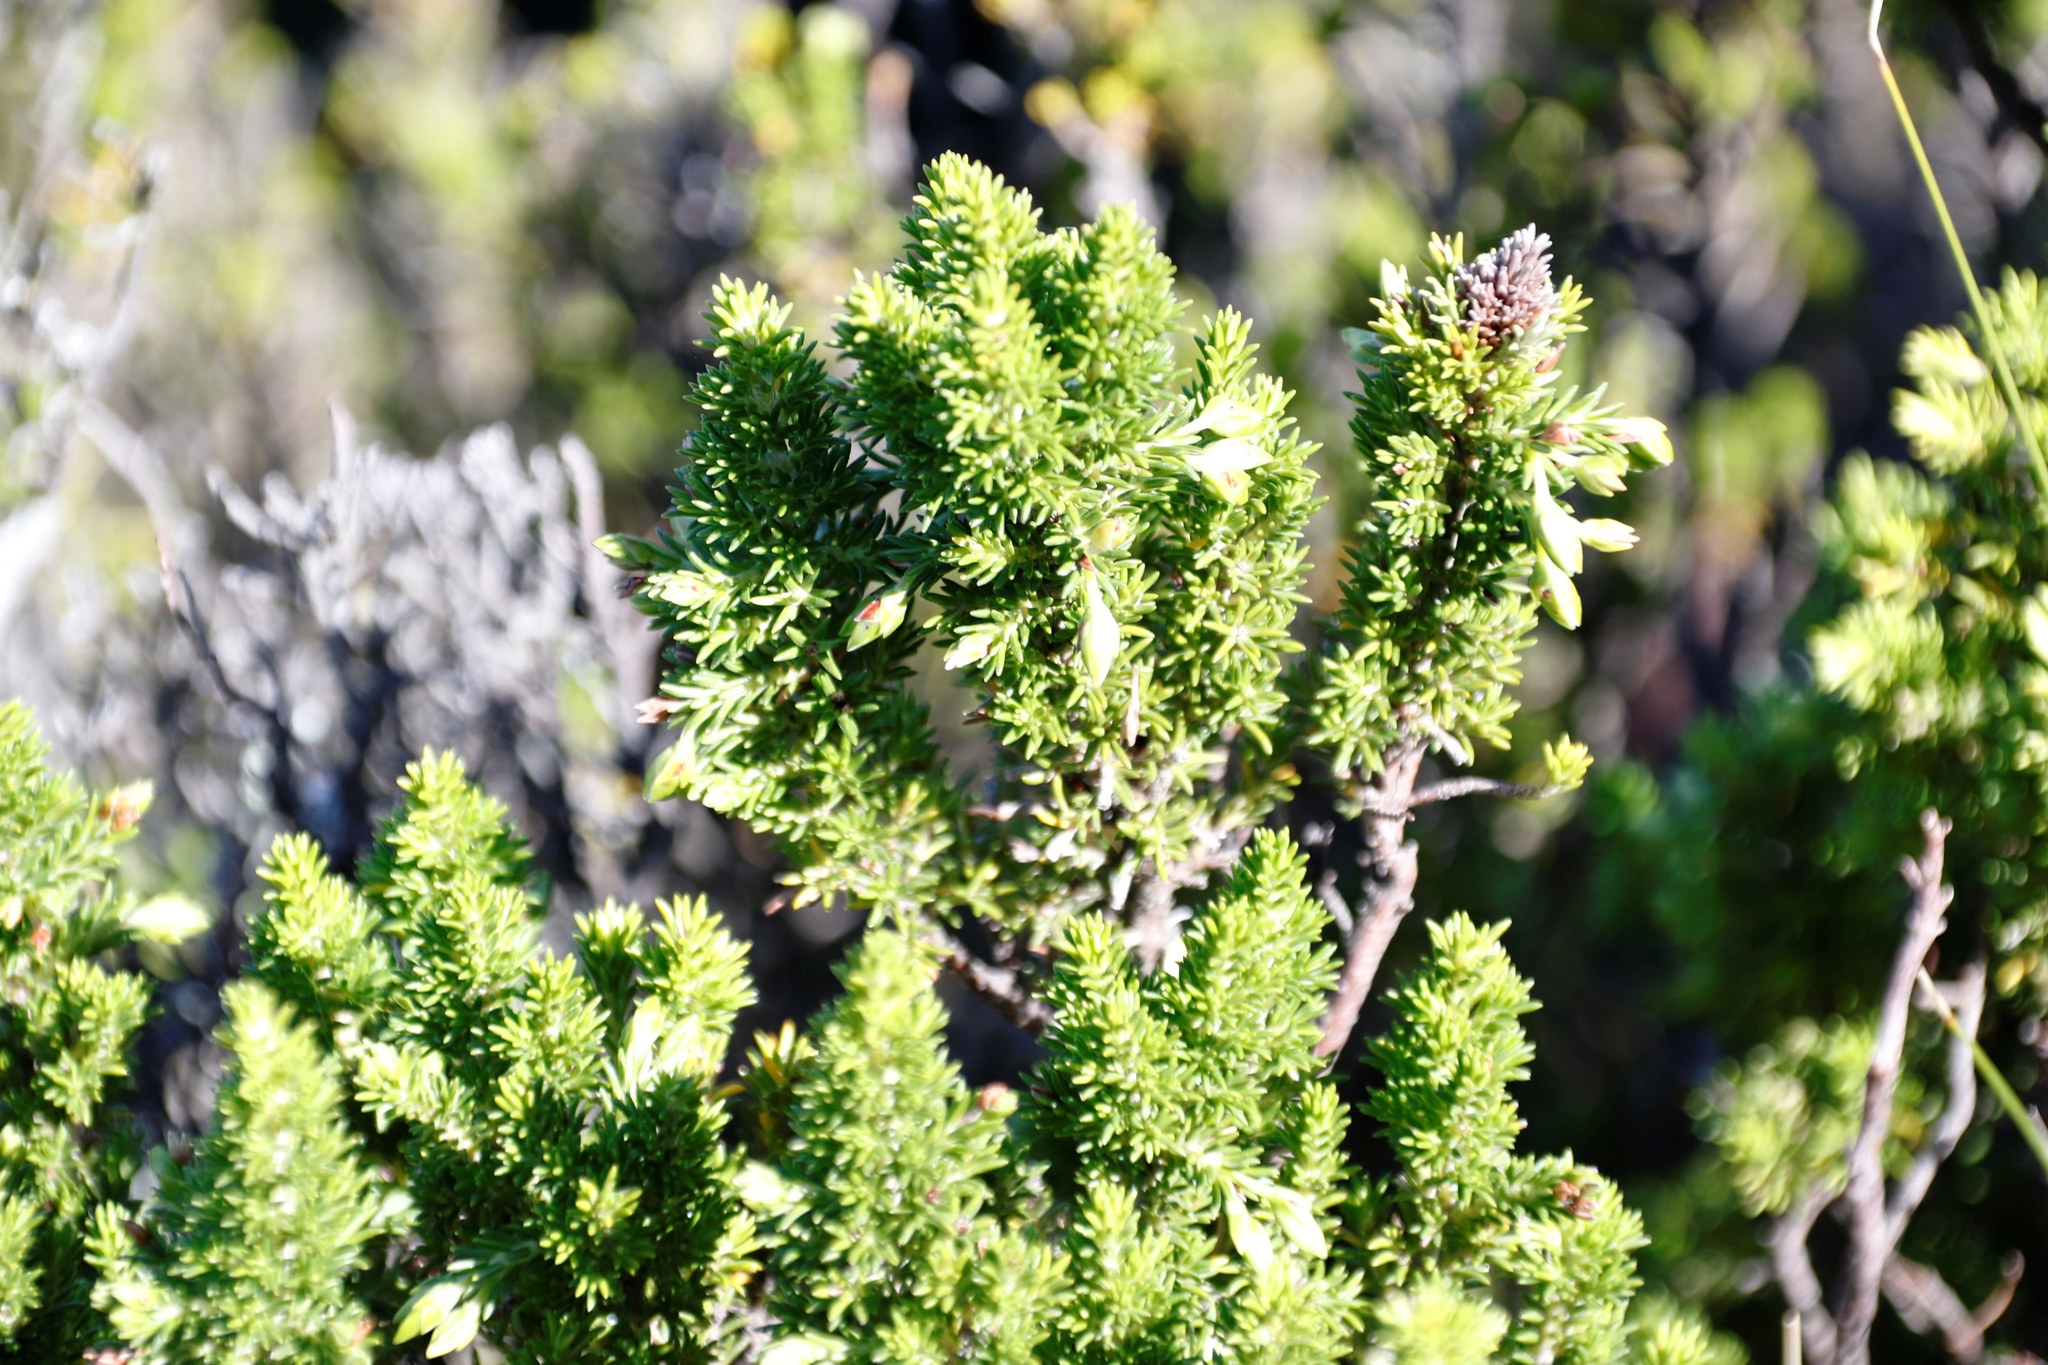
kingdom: Plantae
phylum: Tracheophyta
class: Magnoliopsida
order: Ericales
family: Ericaceae
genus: Erica
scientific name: Erica coccinea
